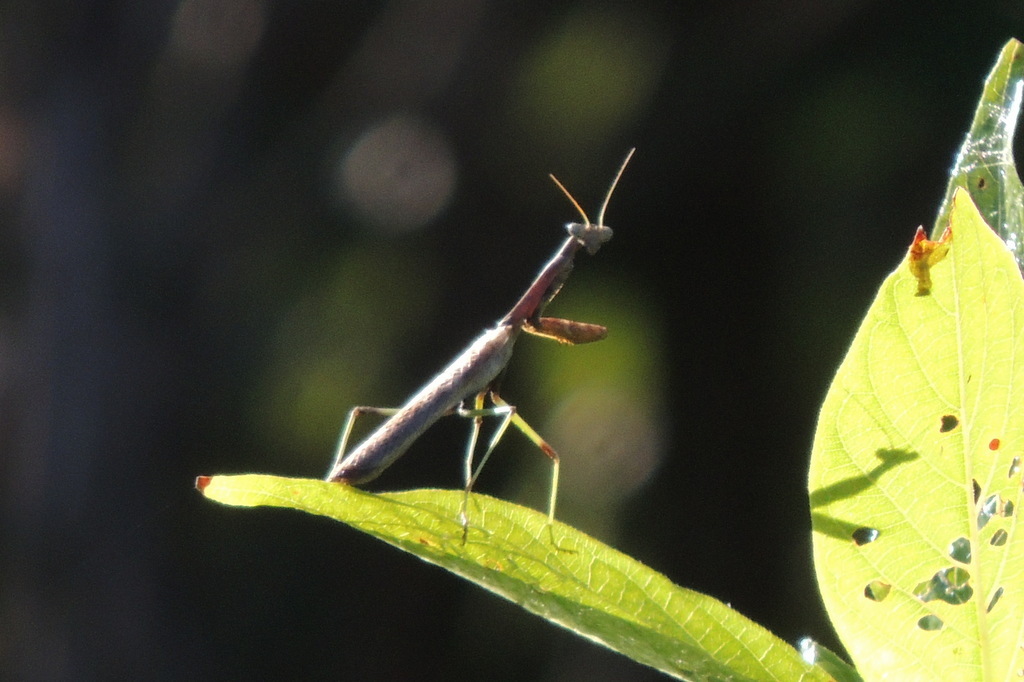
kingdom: Animalia
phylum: Arthropoda
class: Insecta
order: Mantodea
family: Mantidae
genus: Stagmomantis
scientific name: Stagmomantis carolina
